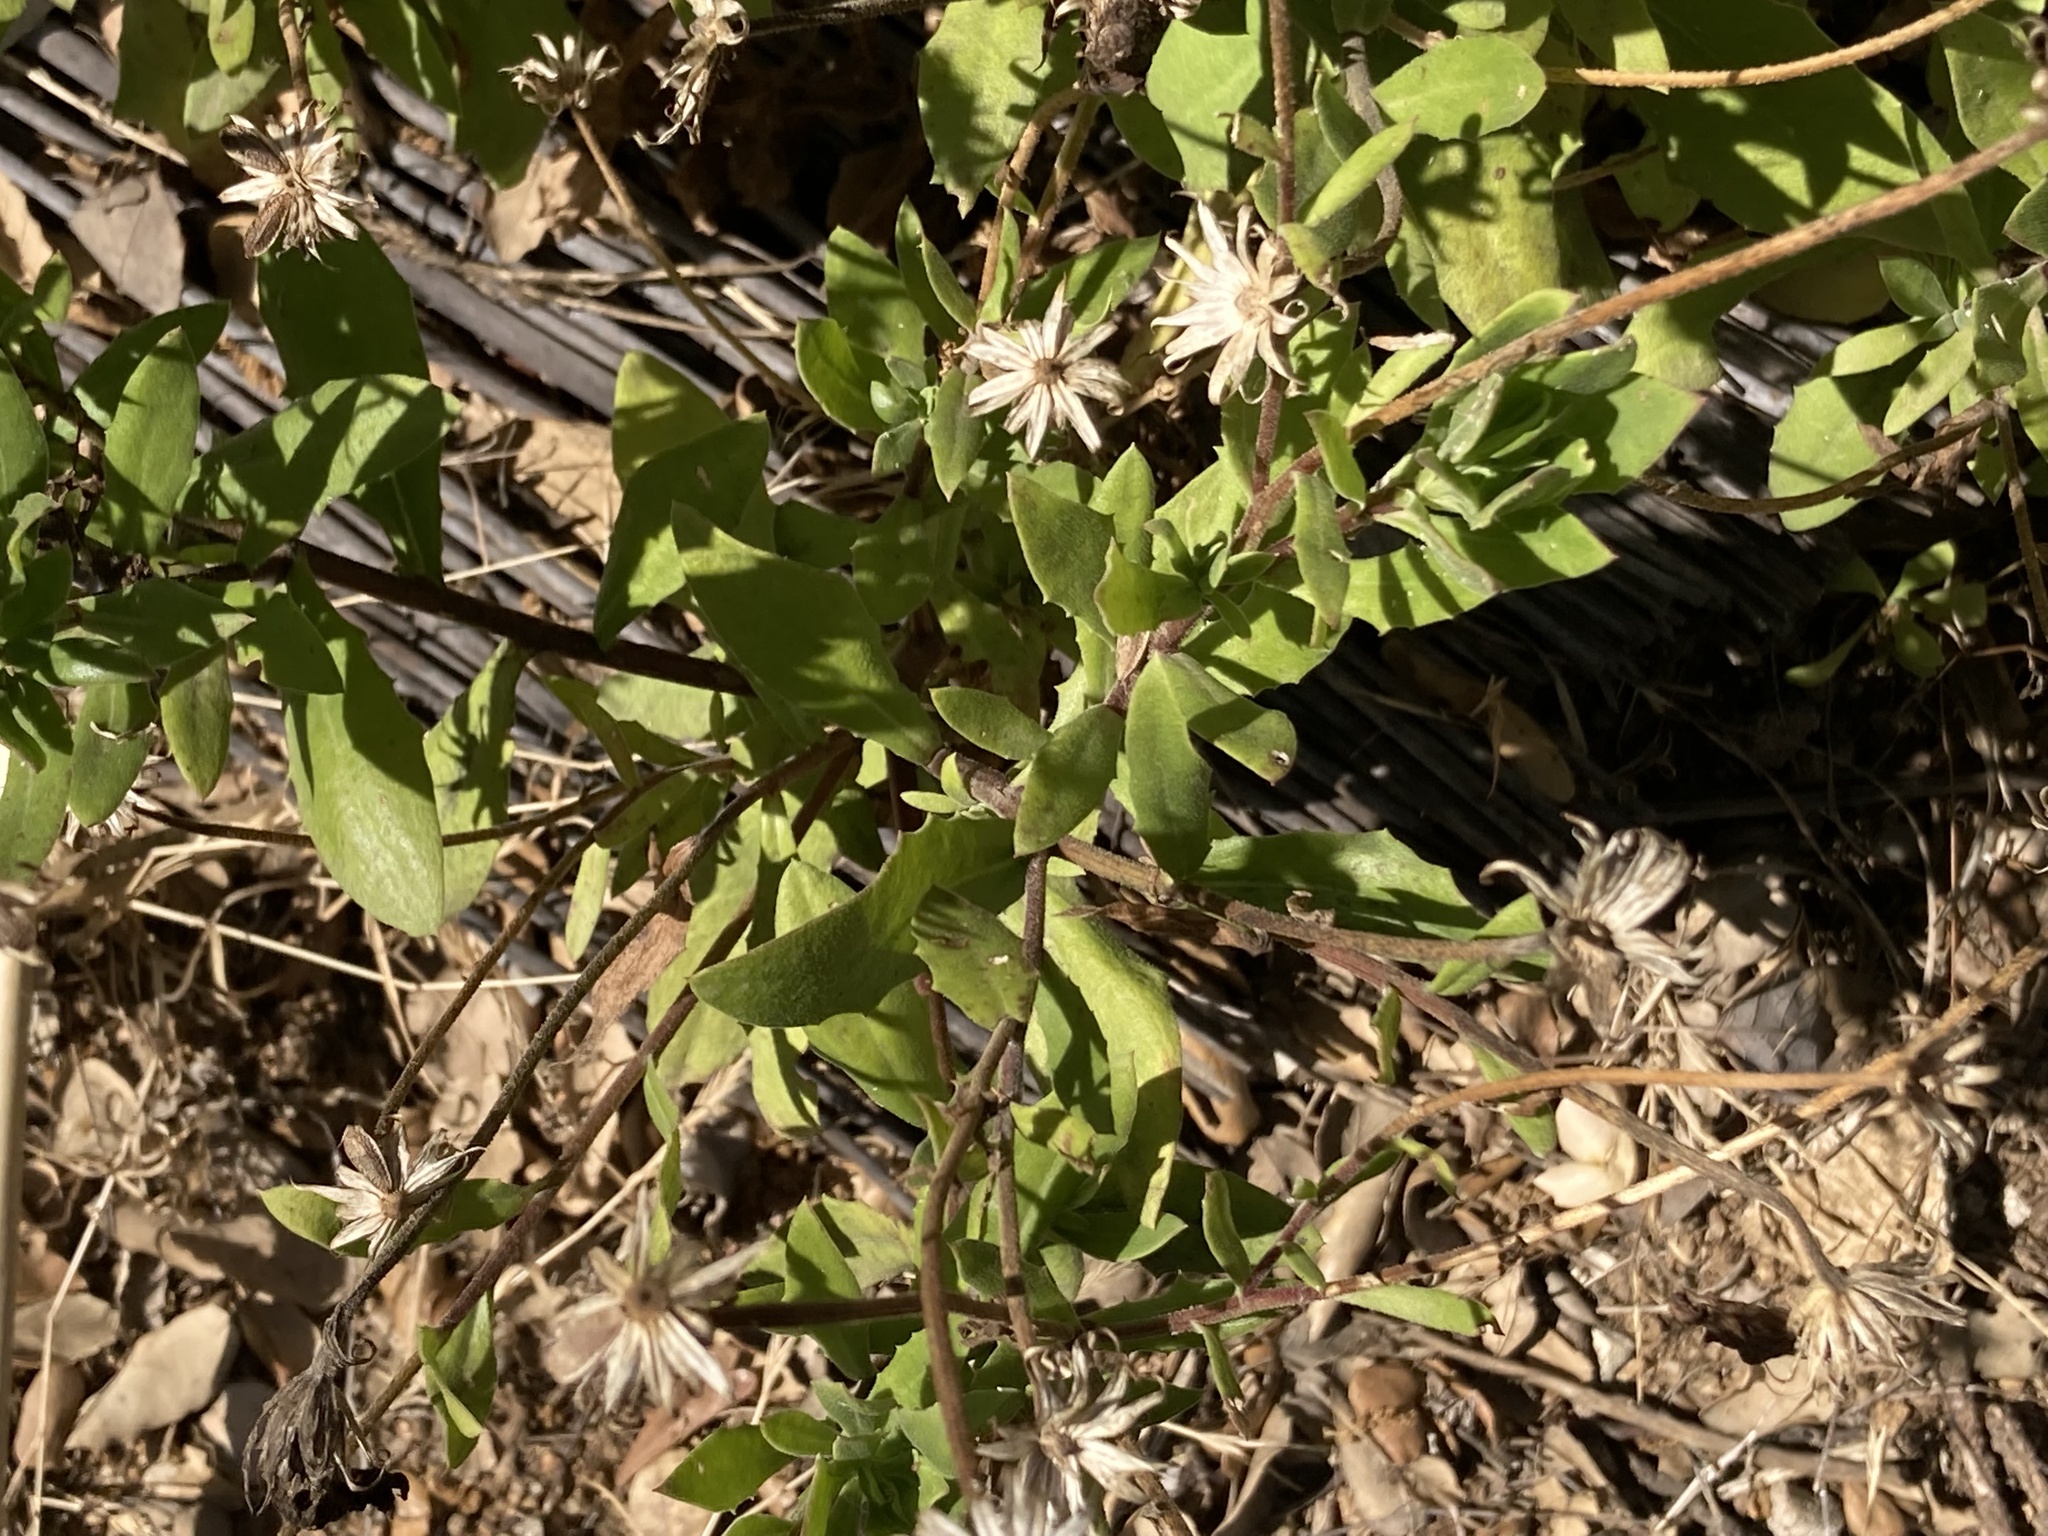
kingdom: Plantae
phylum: Tracheophyta
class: Magnoliopsida
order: Asterales
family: Asteraceae
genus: Dimorphotheca
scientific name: Dimorphotheca ecklonis
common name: Vanstaden's river daisy
